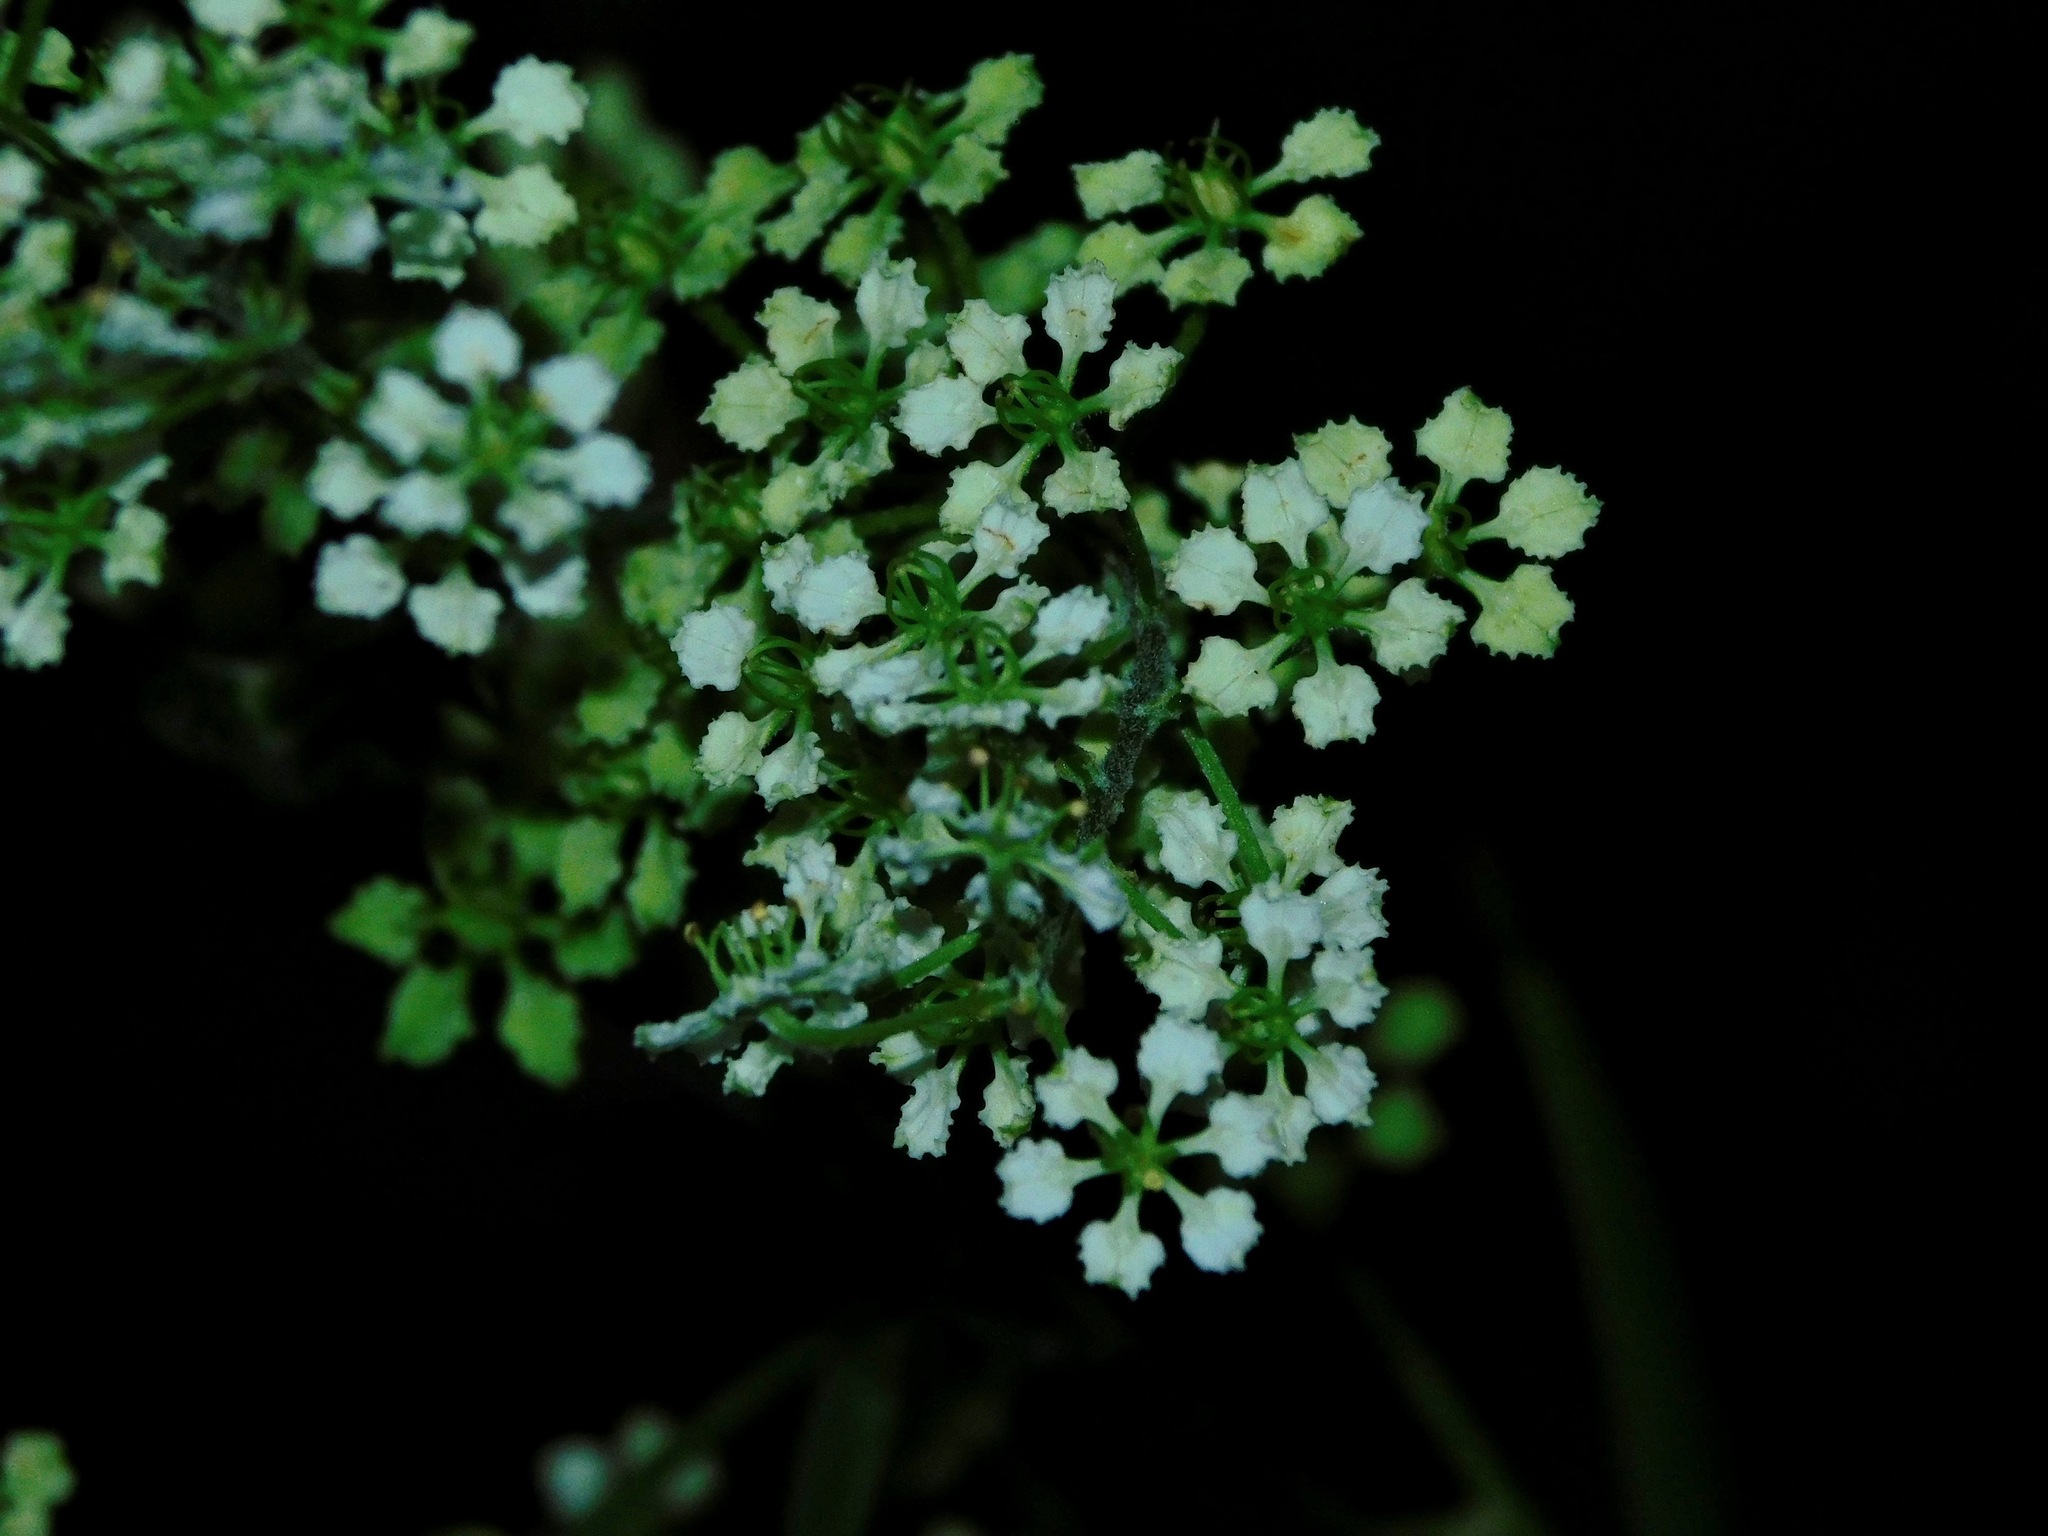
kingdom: Plantae
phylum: Tracheophyta
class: Liliopsida
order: Liliales
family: Melanthiaceae
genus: Veratrum
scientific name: Veratrum hybridum
